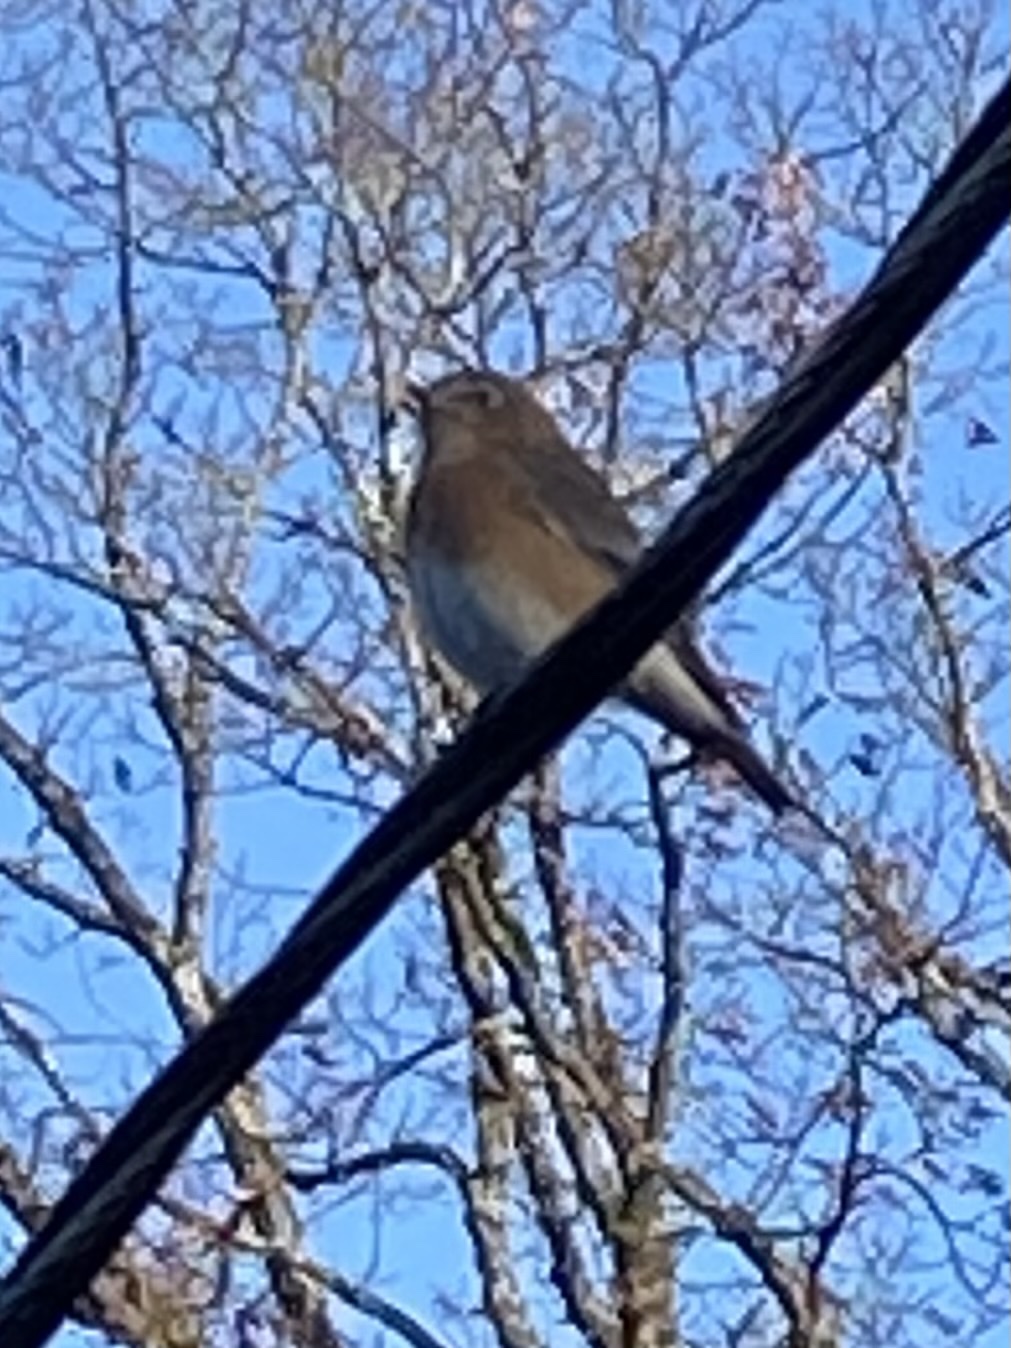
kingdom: Animalia
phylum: Chordata
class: Aves
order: Passeriformes
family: Turdidae
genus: Sialia
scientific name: Sialia sialis
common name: Eastern bluebird
